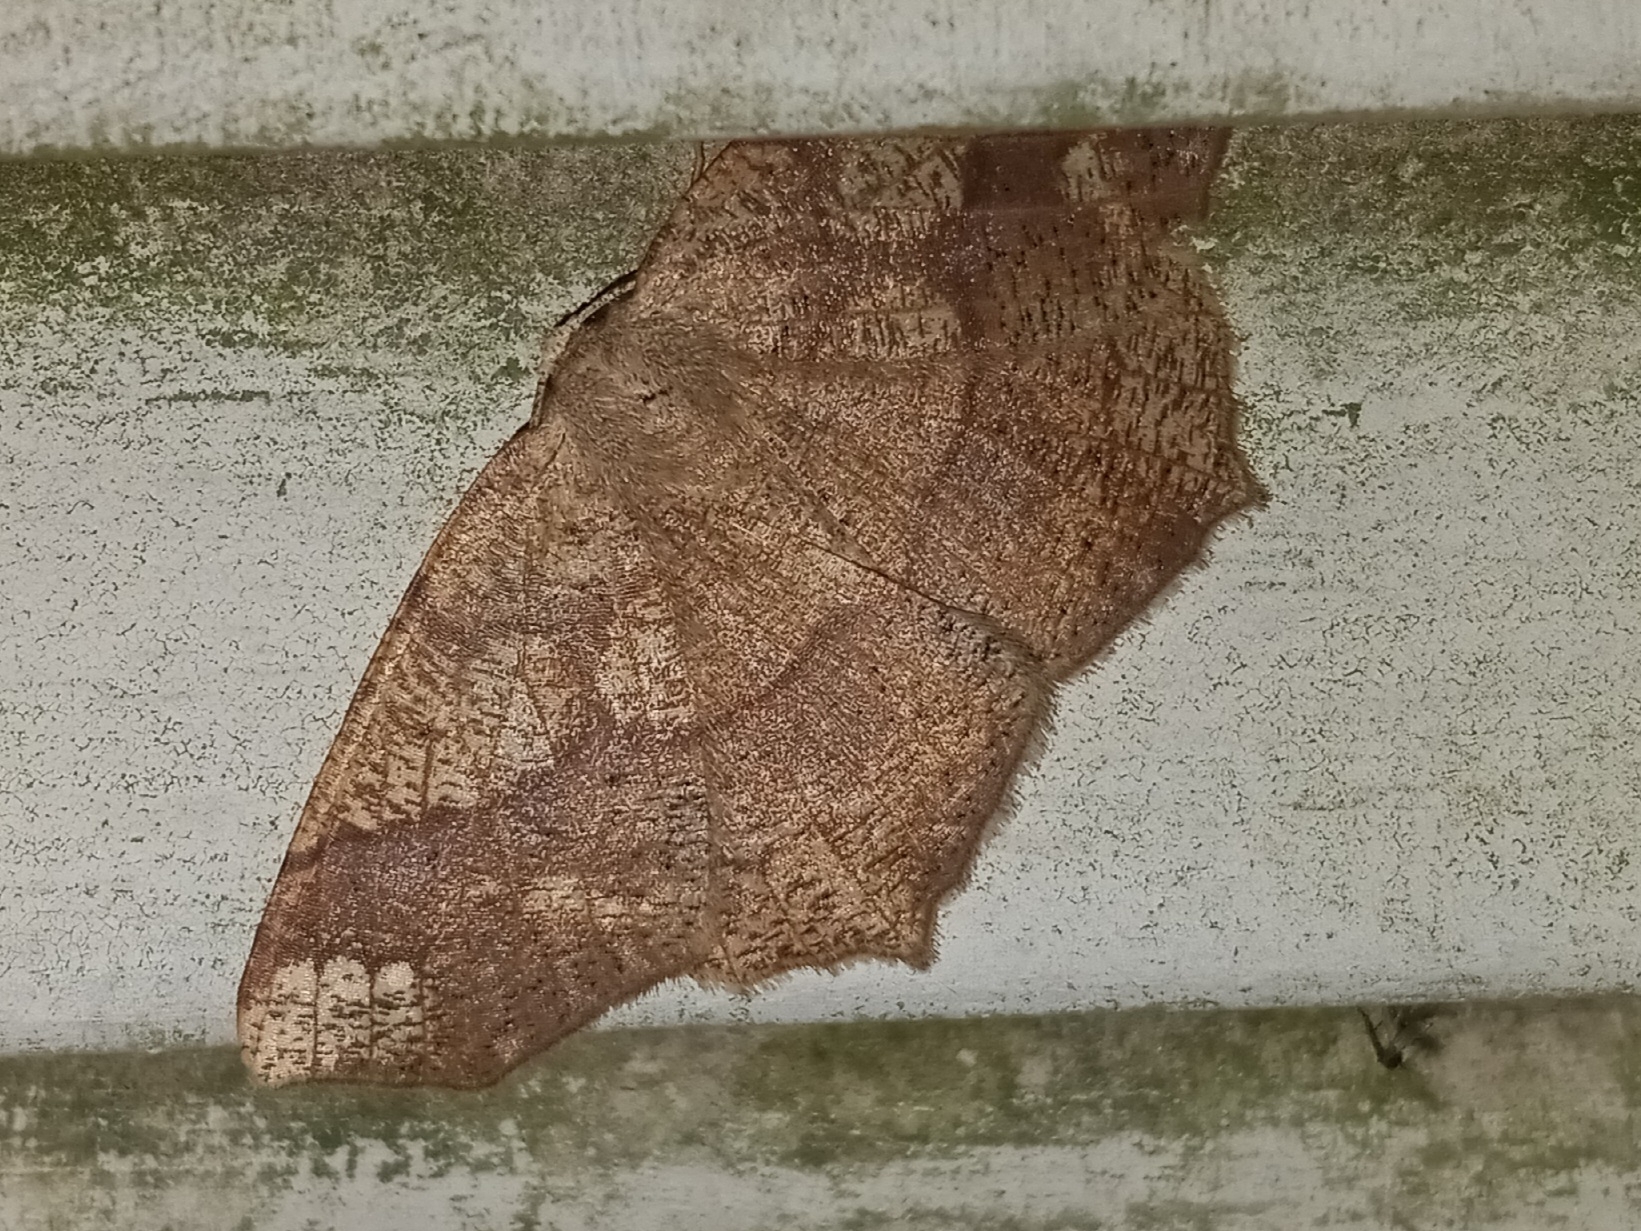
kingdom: Animalia
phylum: Arthropoda
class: Insecta
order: Lepidoptera
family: Geometridae
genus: Besma
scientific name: Besma quercivoraria
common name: Oak besma
